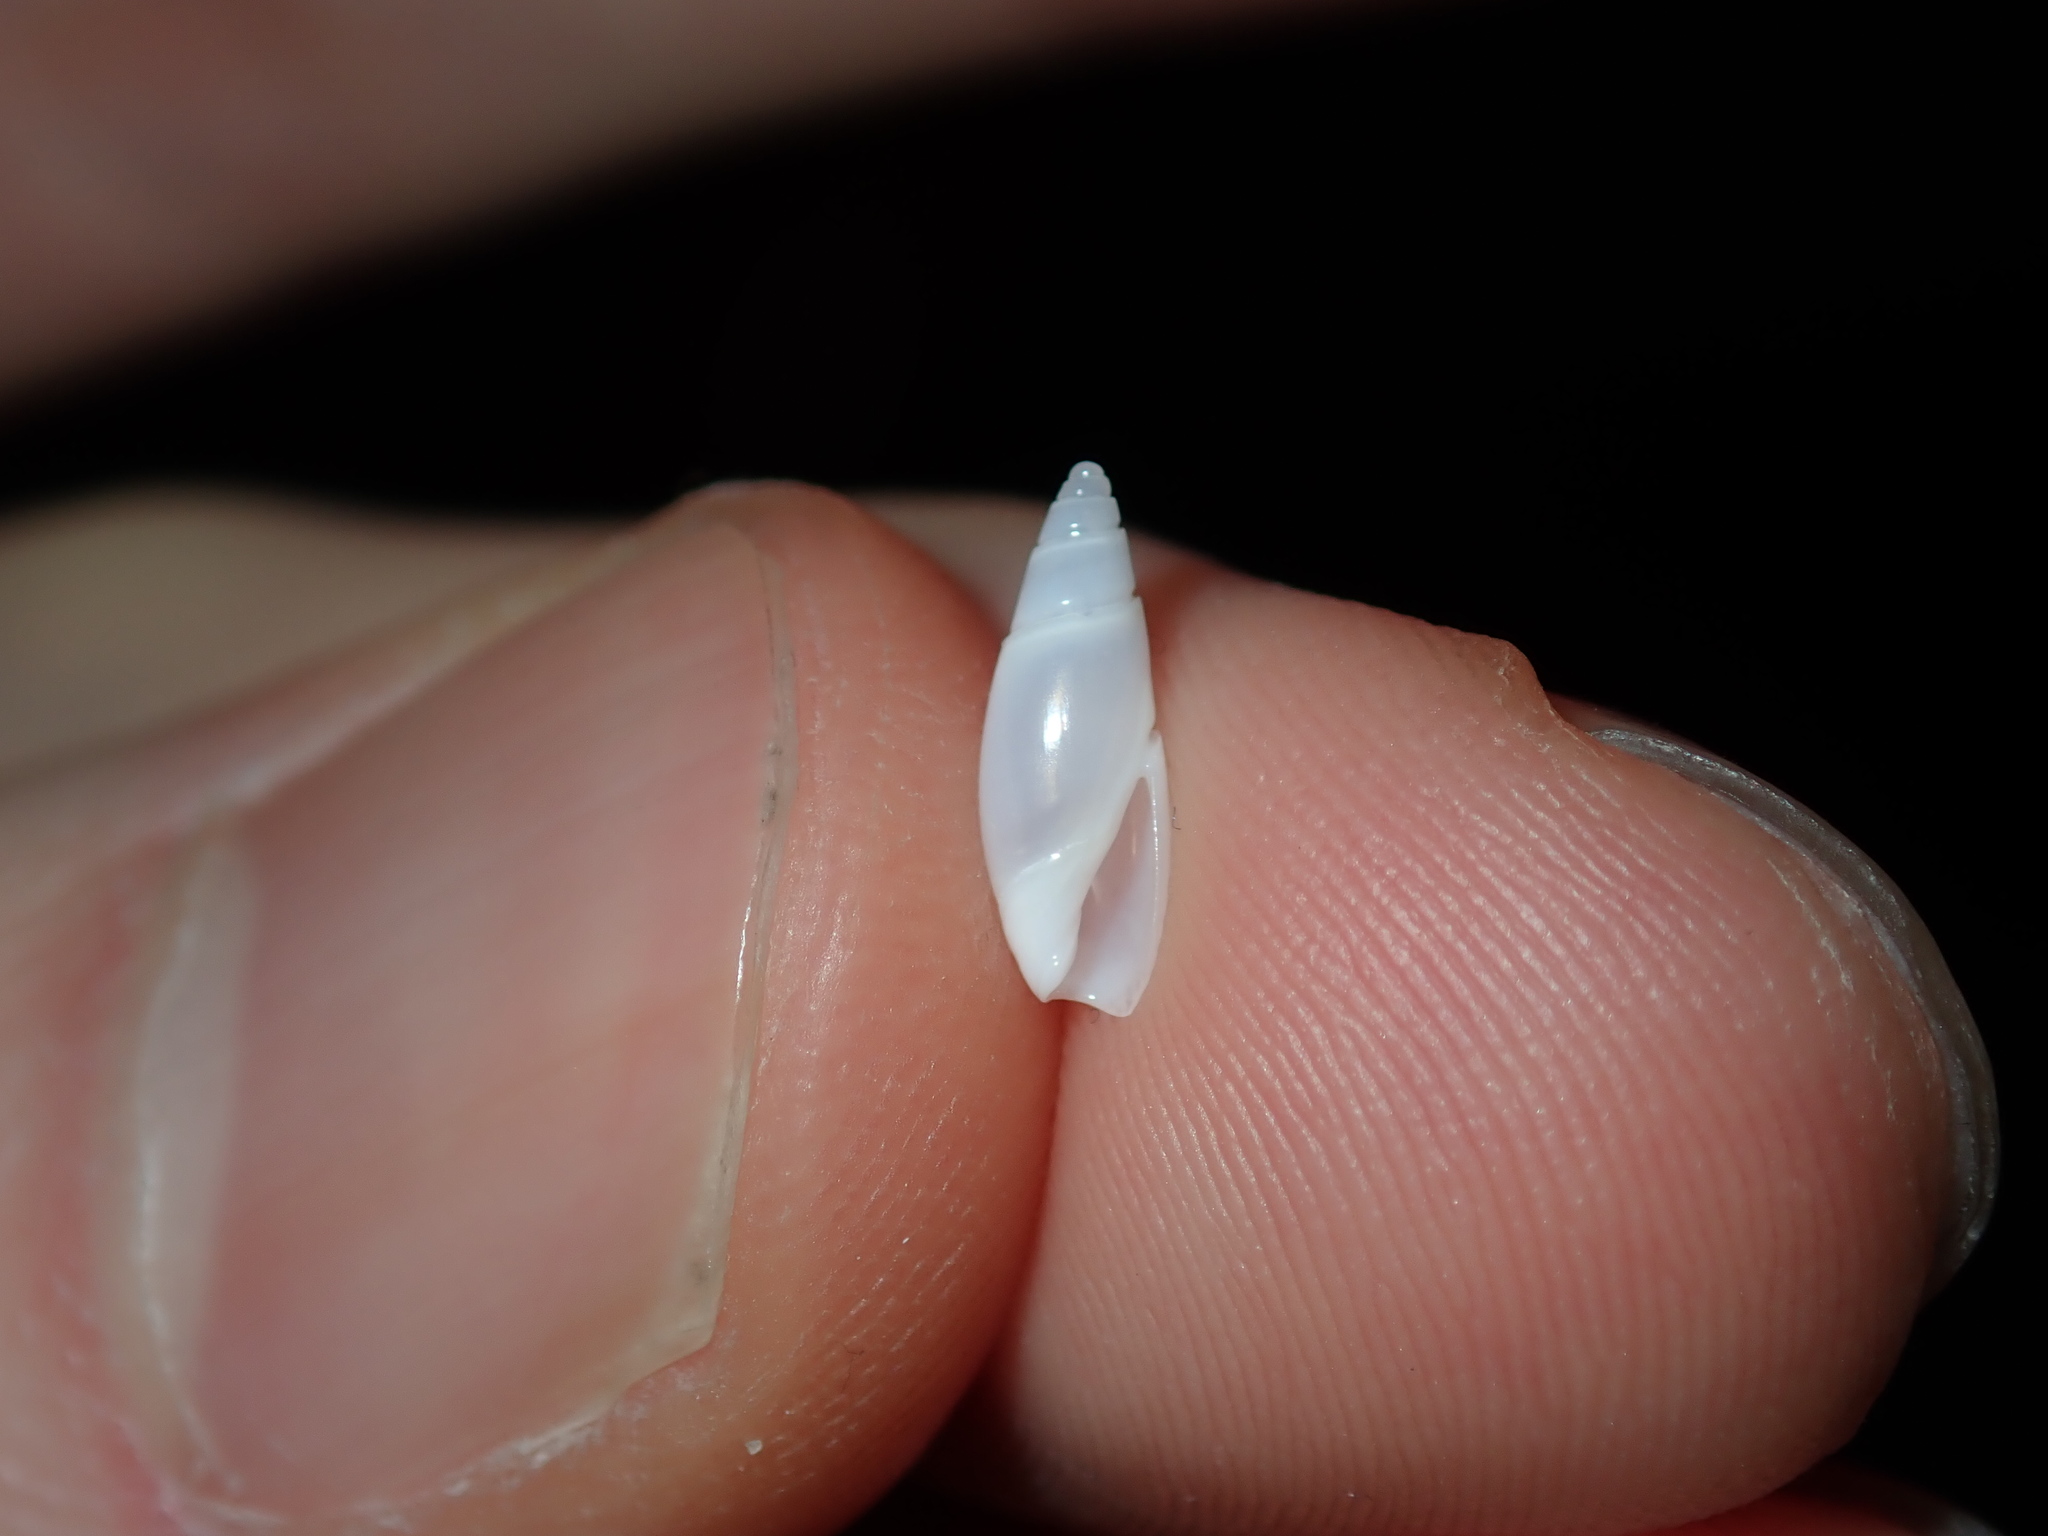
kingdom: Animalia
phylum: Mollusca
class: Gastropoda
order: Neogastropoda
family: Olividae
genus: Cupidoliva
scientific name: Cupidoliva nympha
